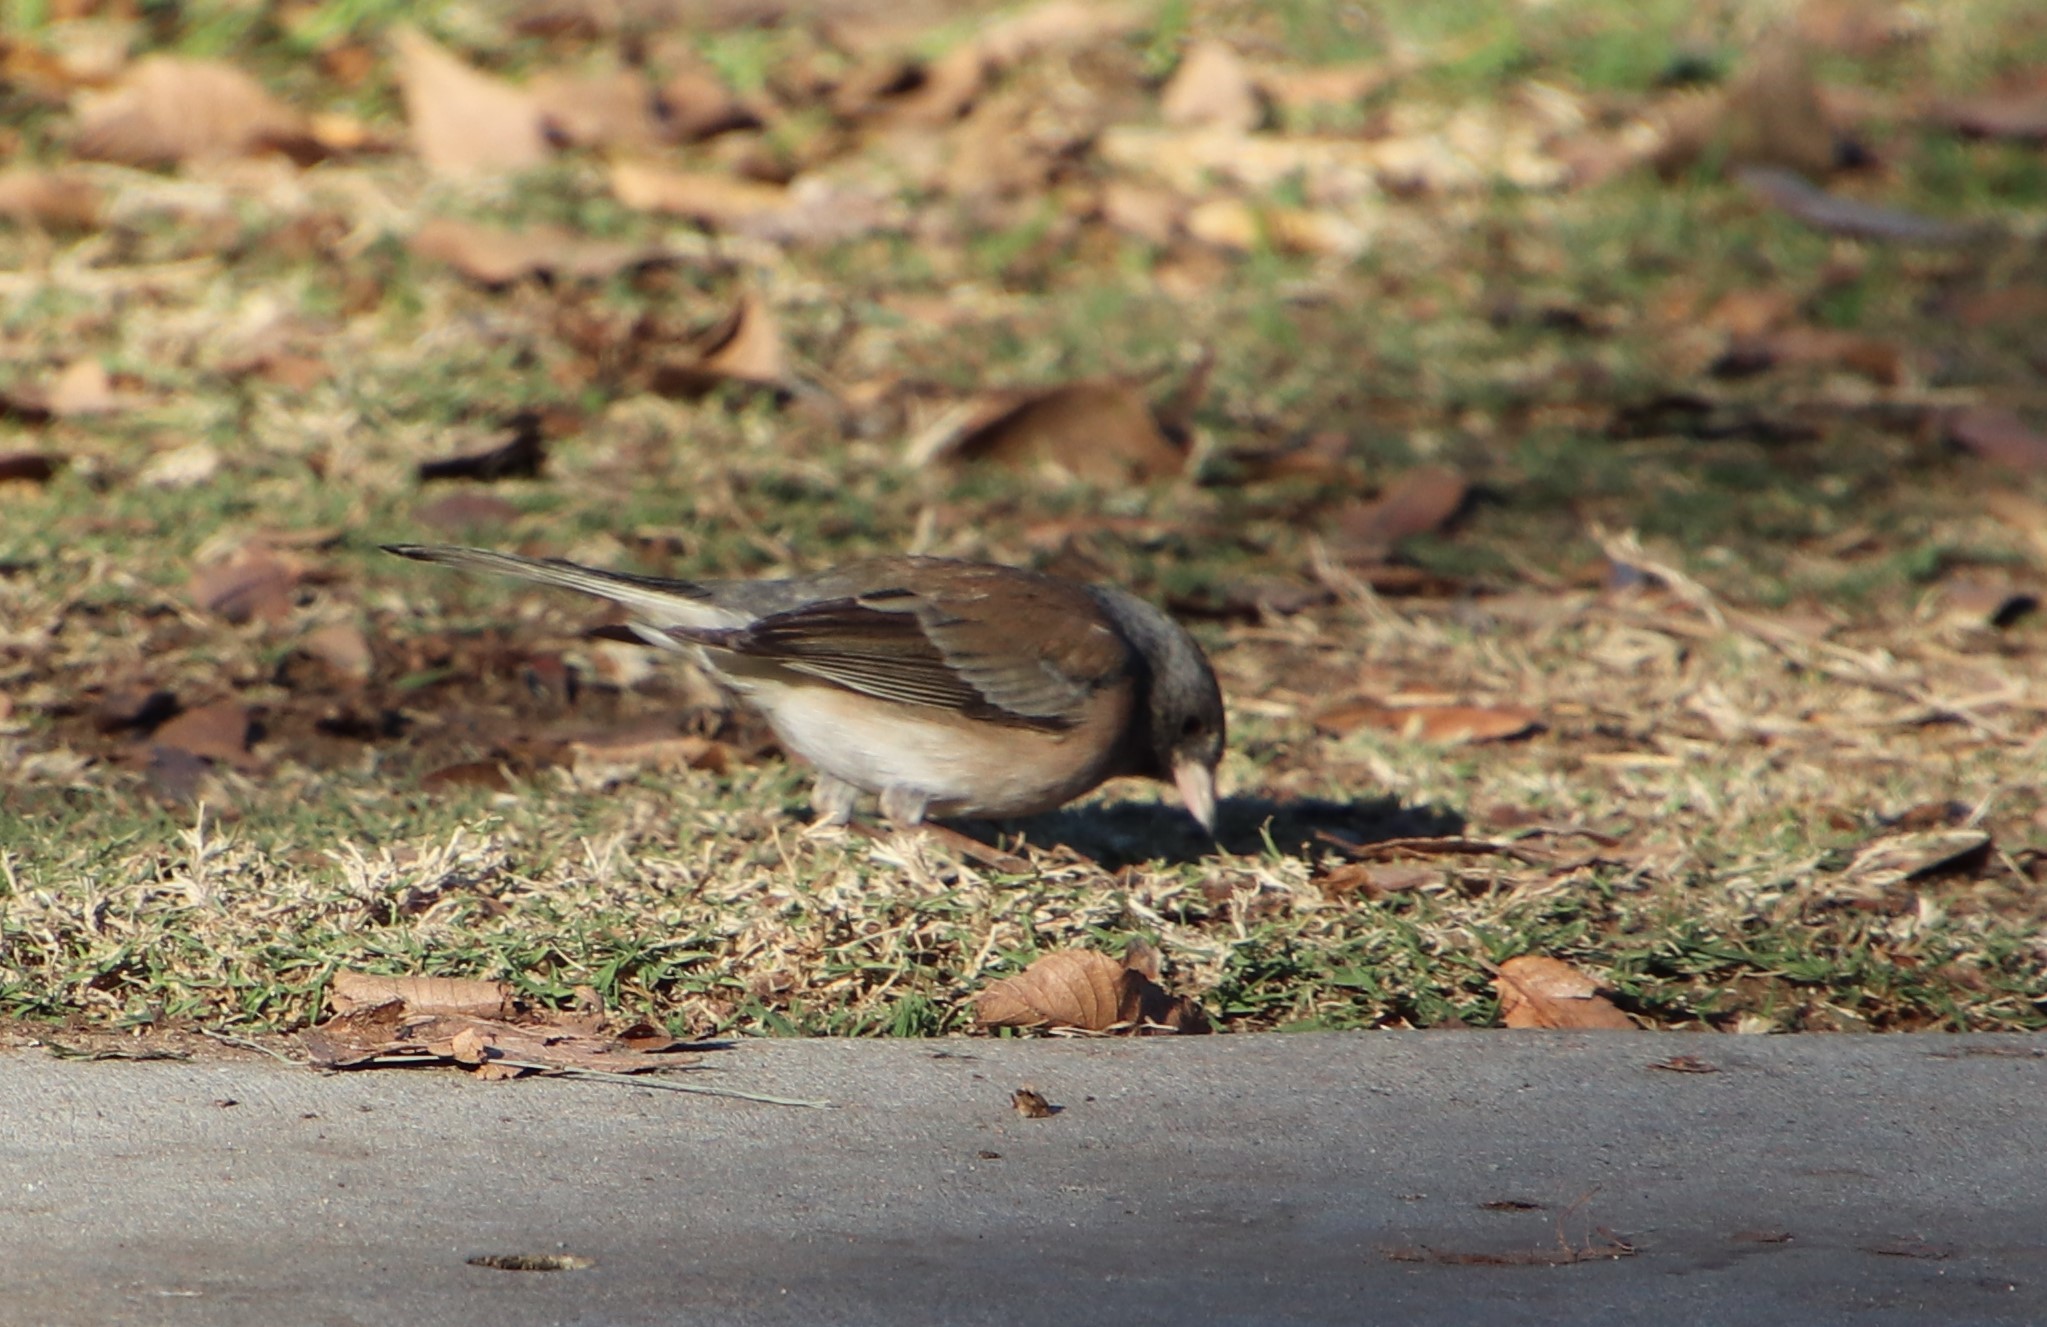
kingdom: Animalia
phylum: Chordata
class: Aves
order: Passeriformes
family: Passerellidae
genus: Junco
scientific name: Junco hyemalis
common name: Dark-eyed junco
